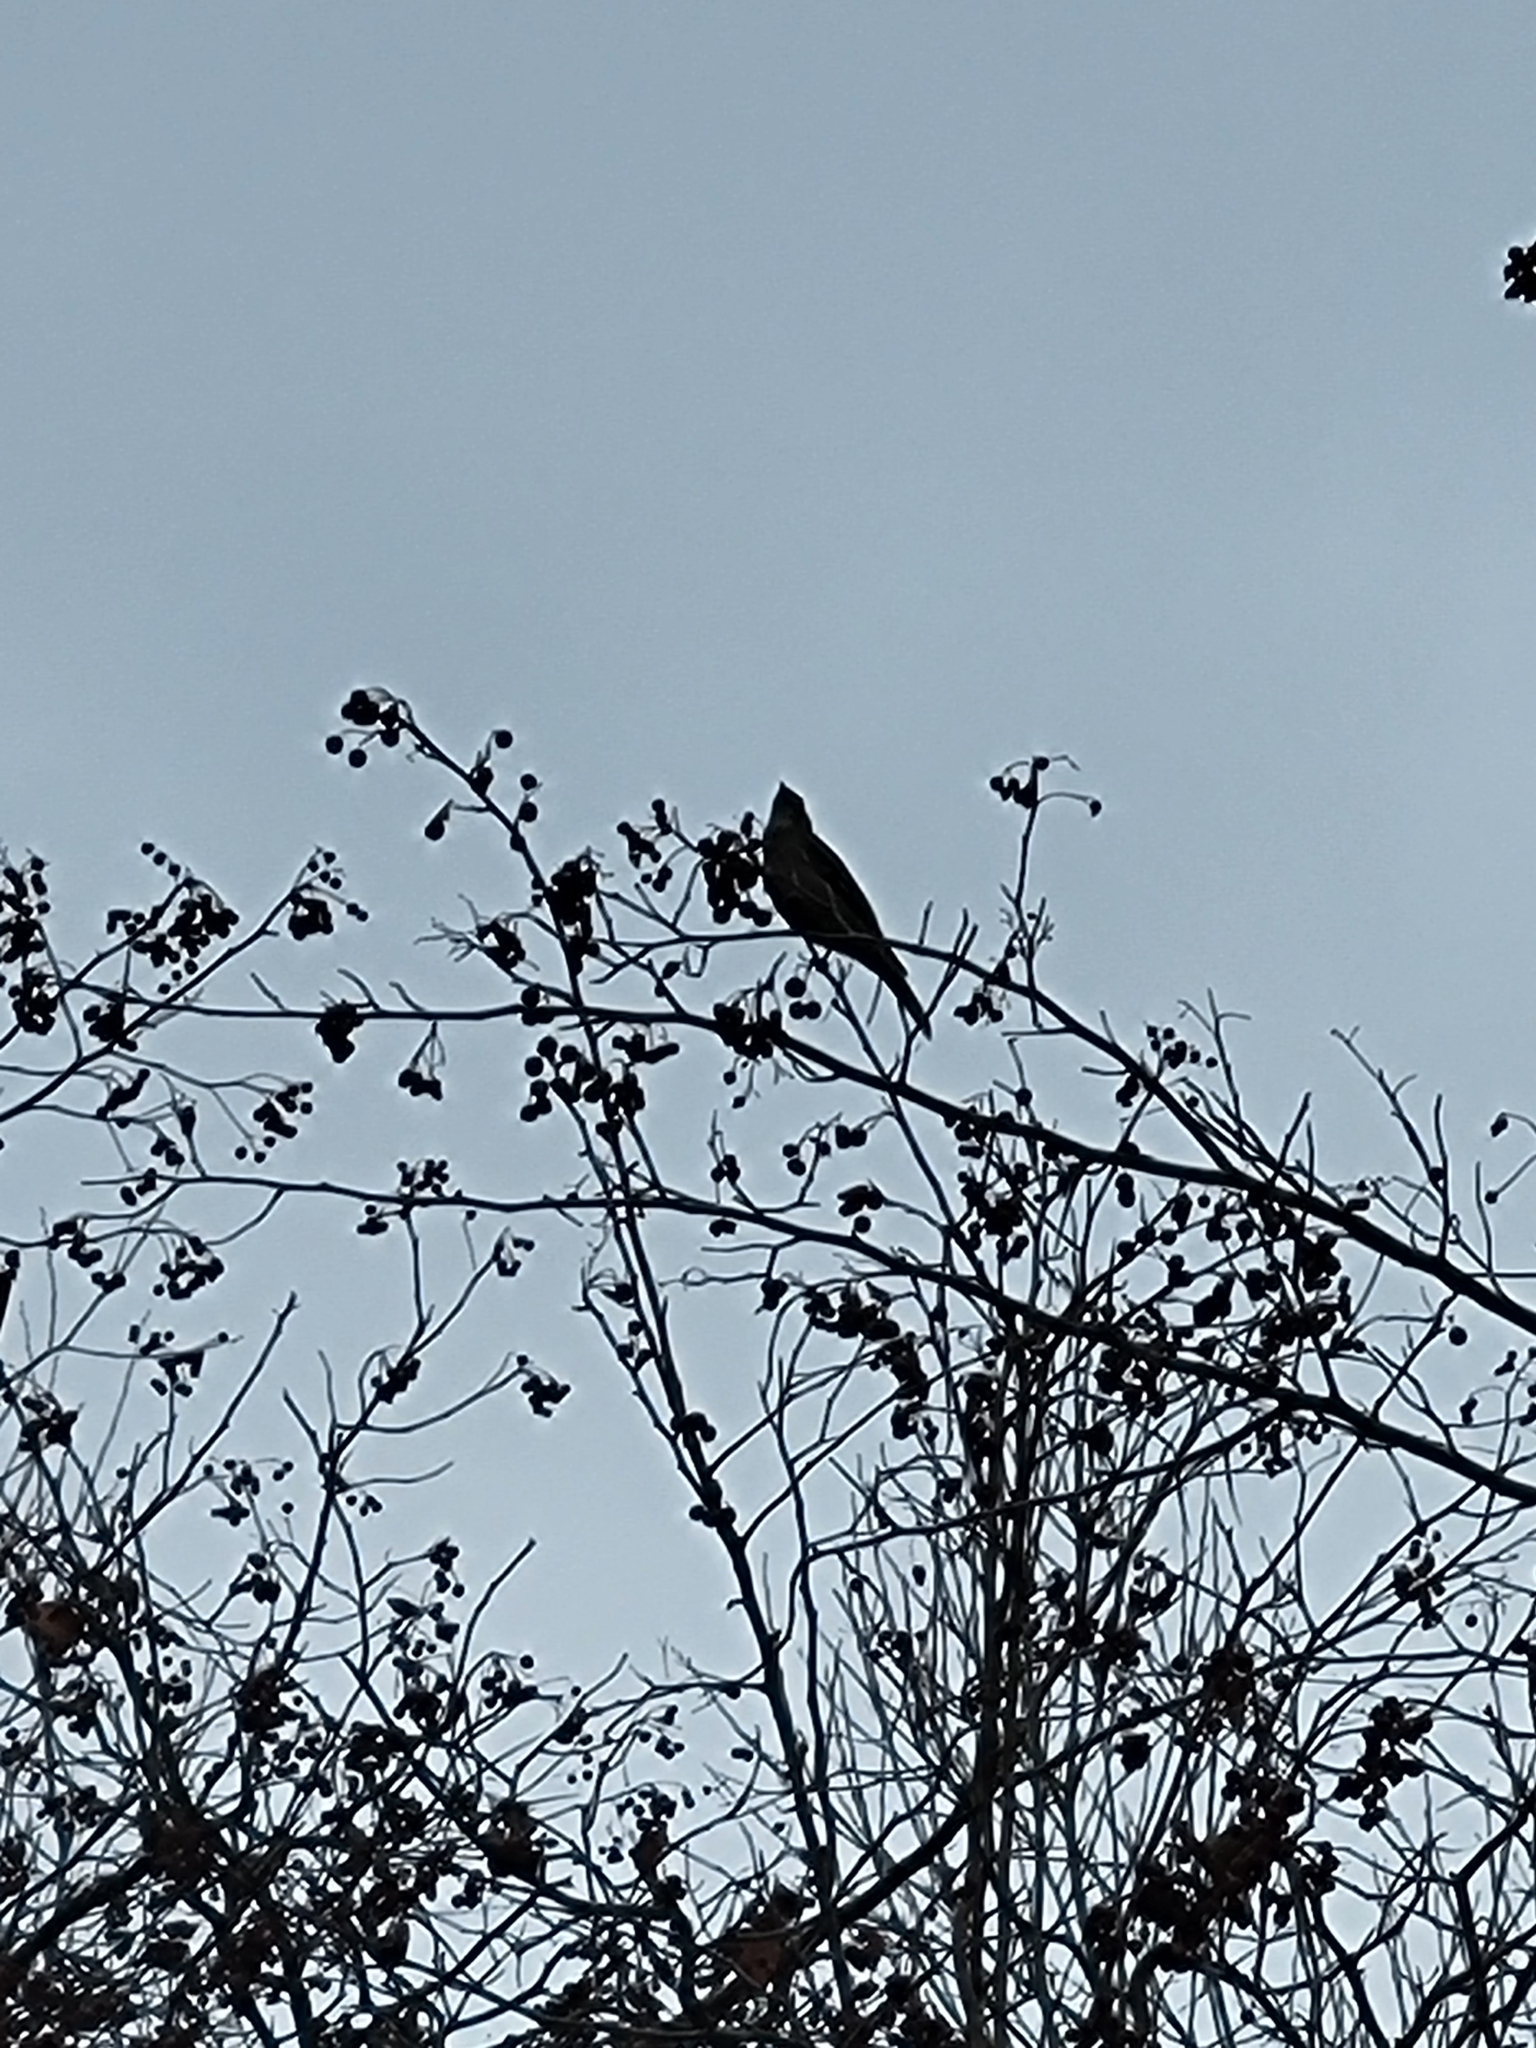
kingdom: Animalia
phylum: Chordata
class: Aves
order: Passeriformes
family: Turdidae
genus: Myadestes
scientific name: Myadestes townsendi
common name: Townsend's solitaire
